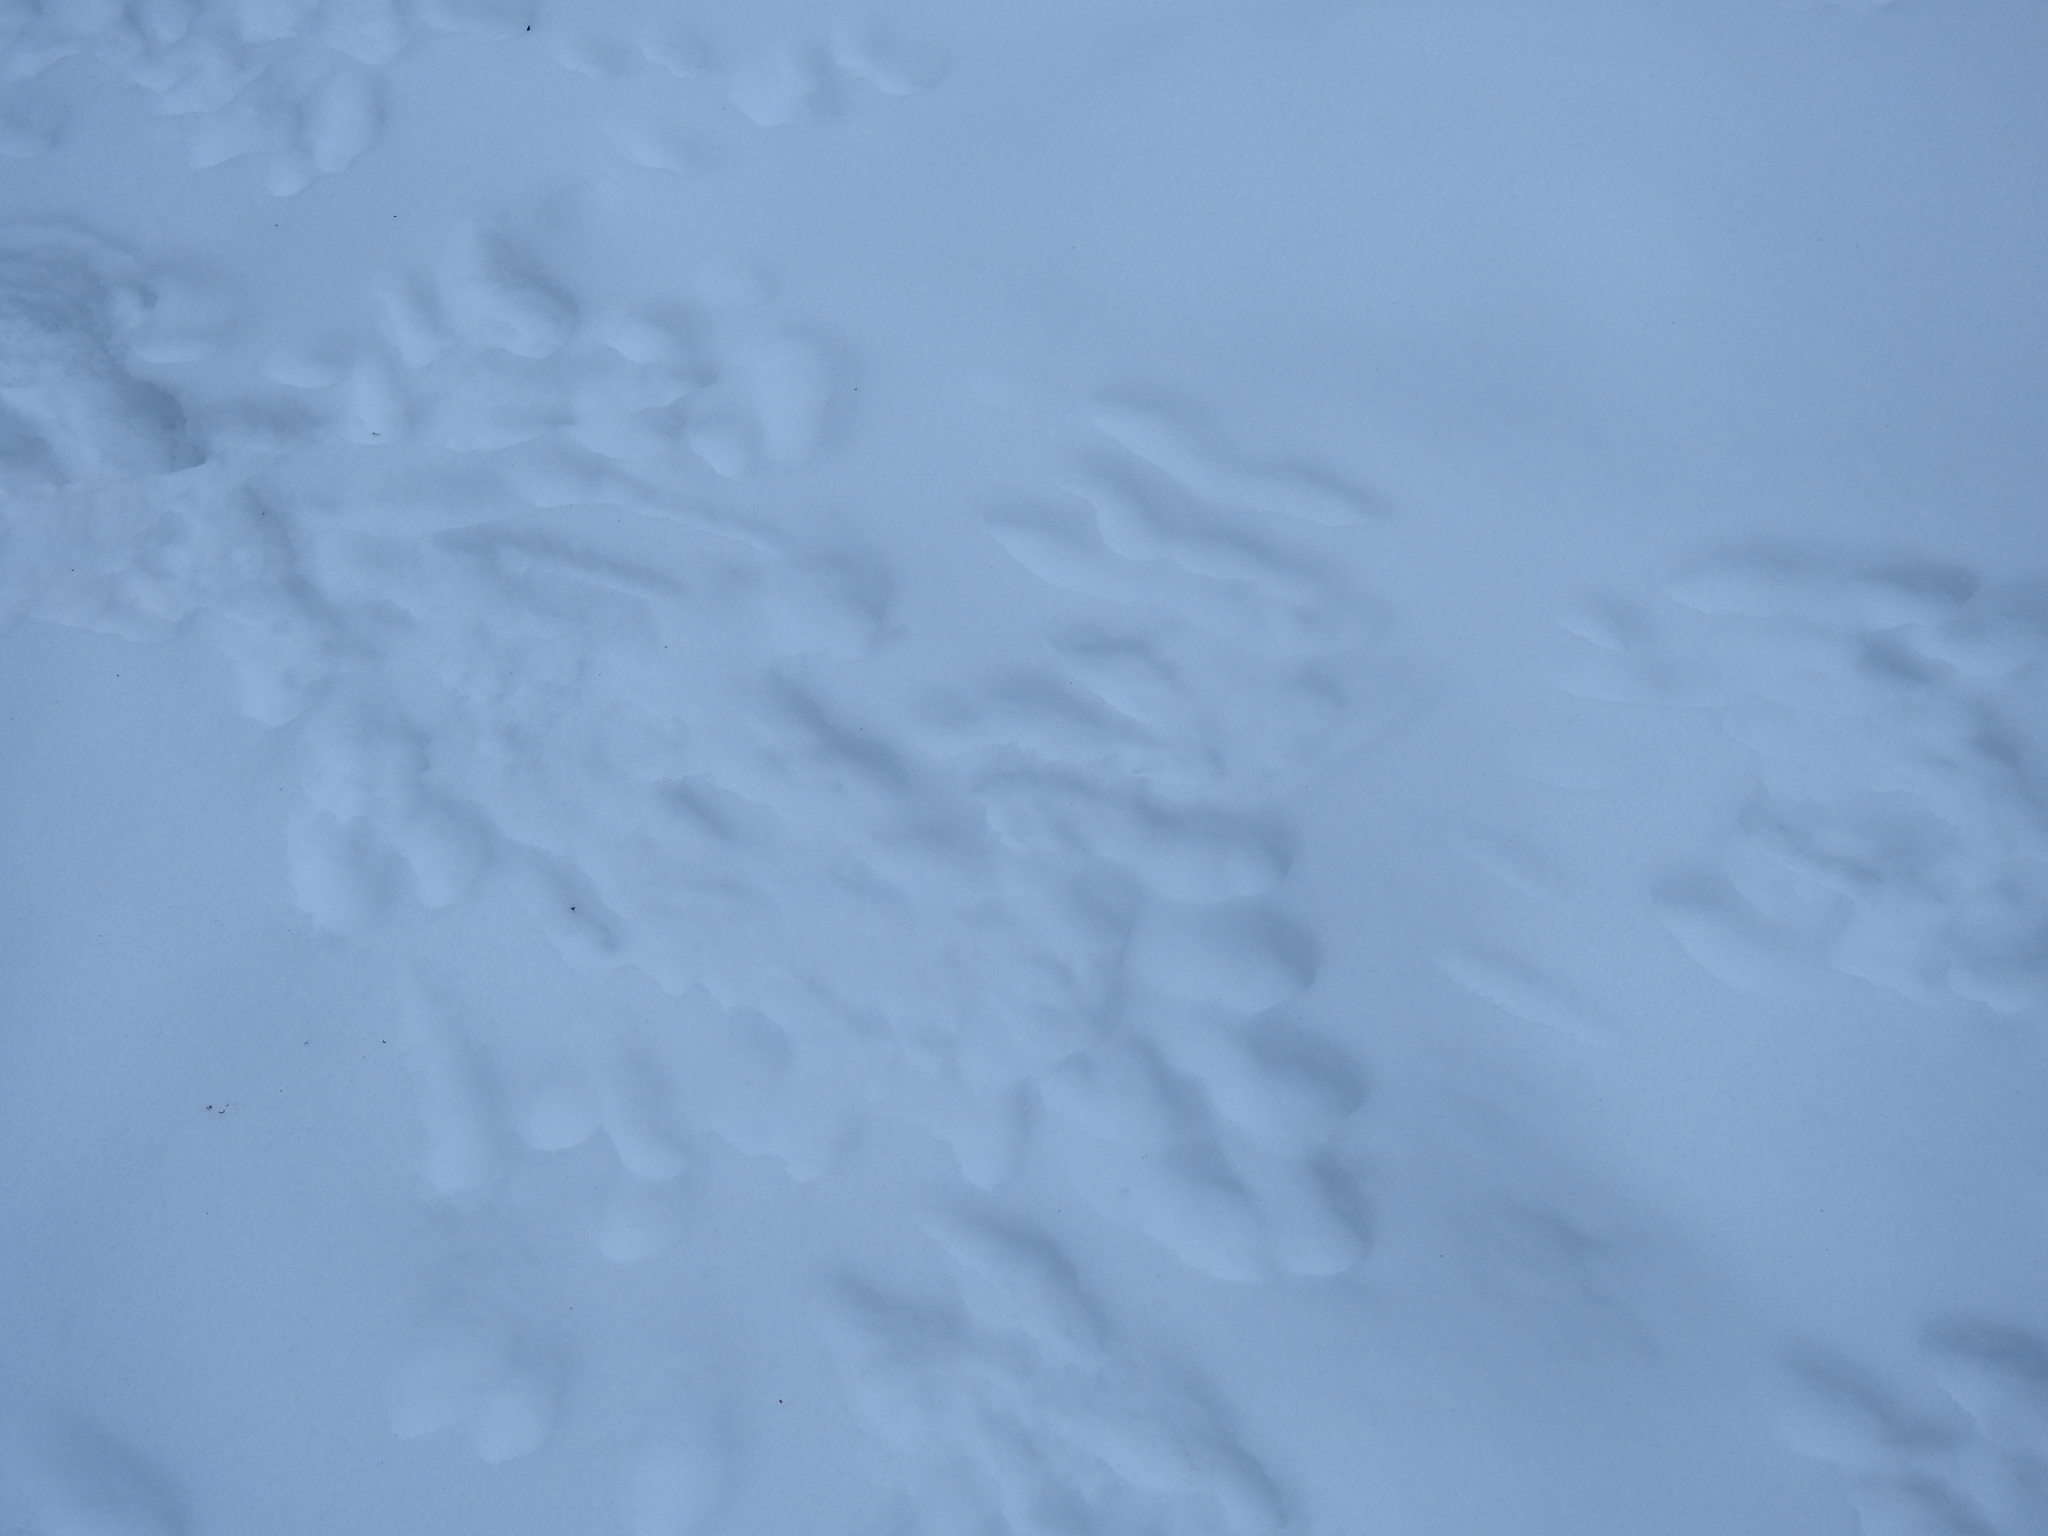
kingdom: Animalia
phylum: Chordata
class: Mammalia
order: Lagomorpha
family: Leporidae
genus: Sylvilagus
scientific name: Sylvilagus floridanus
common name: Eastern cottontail
